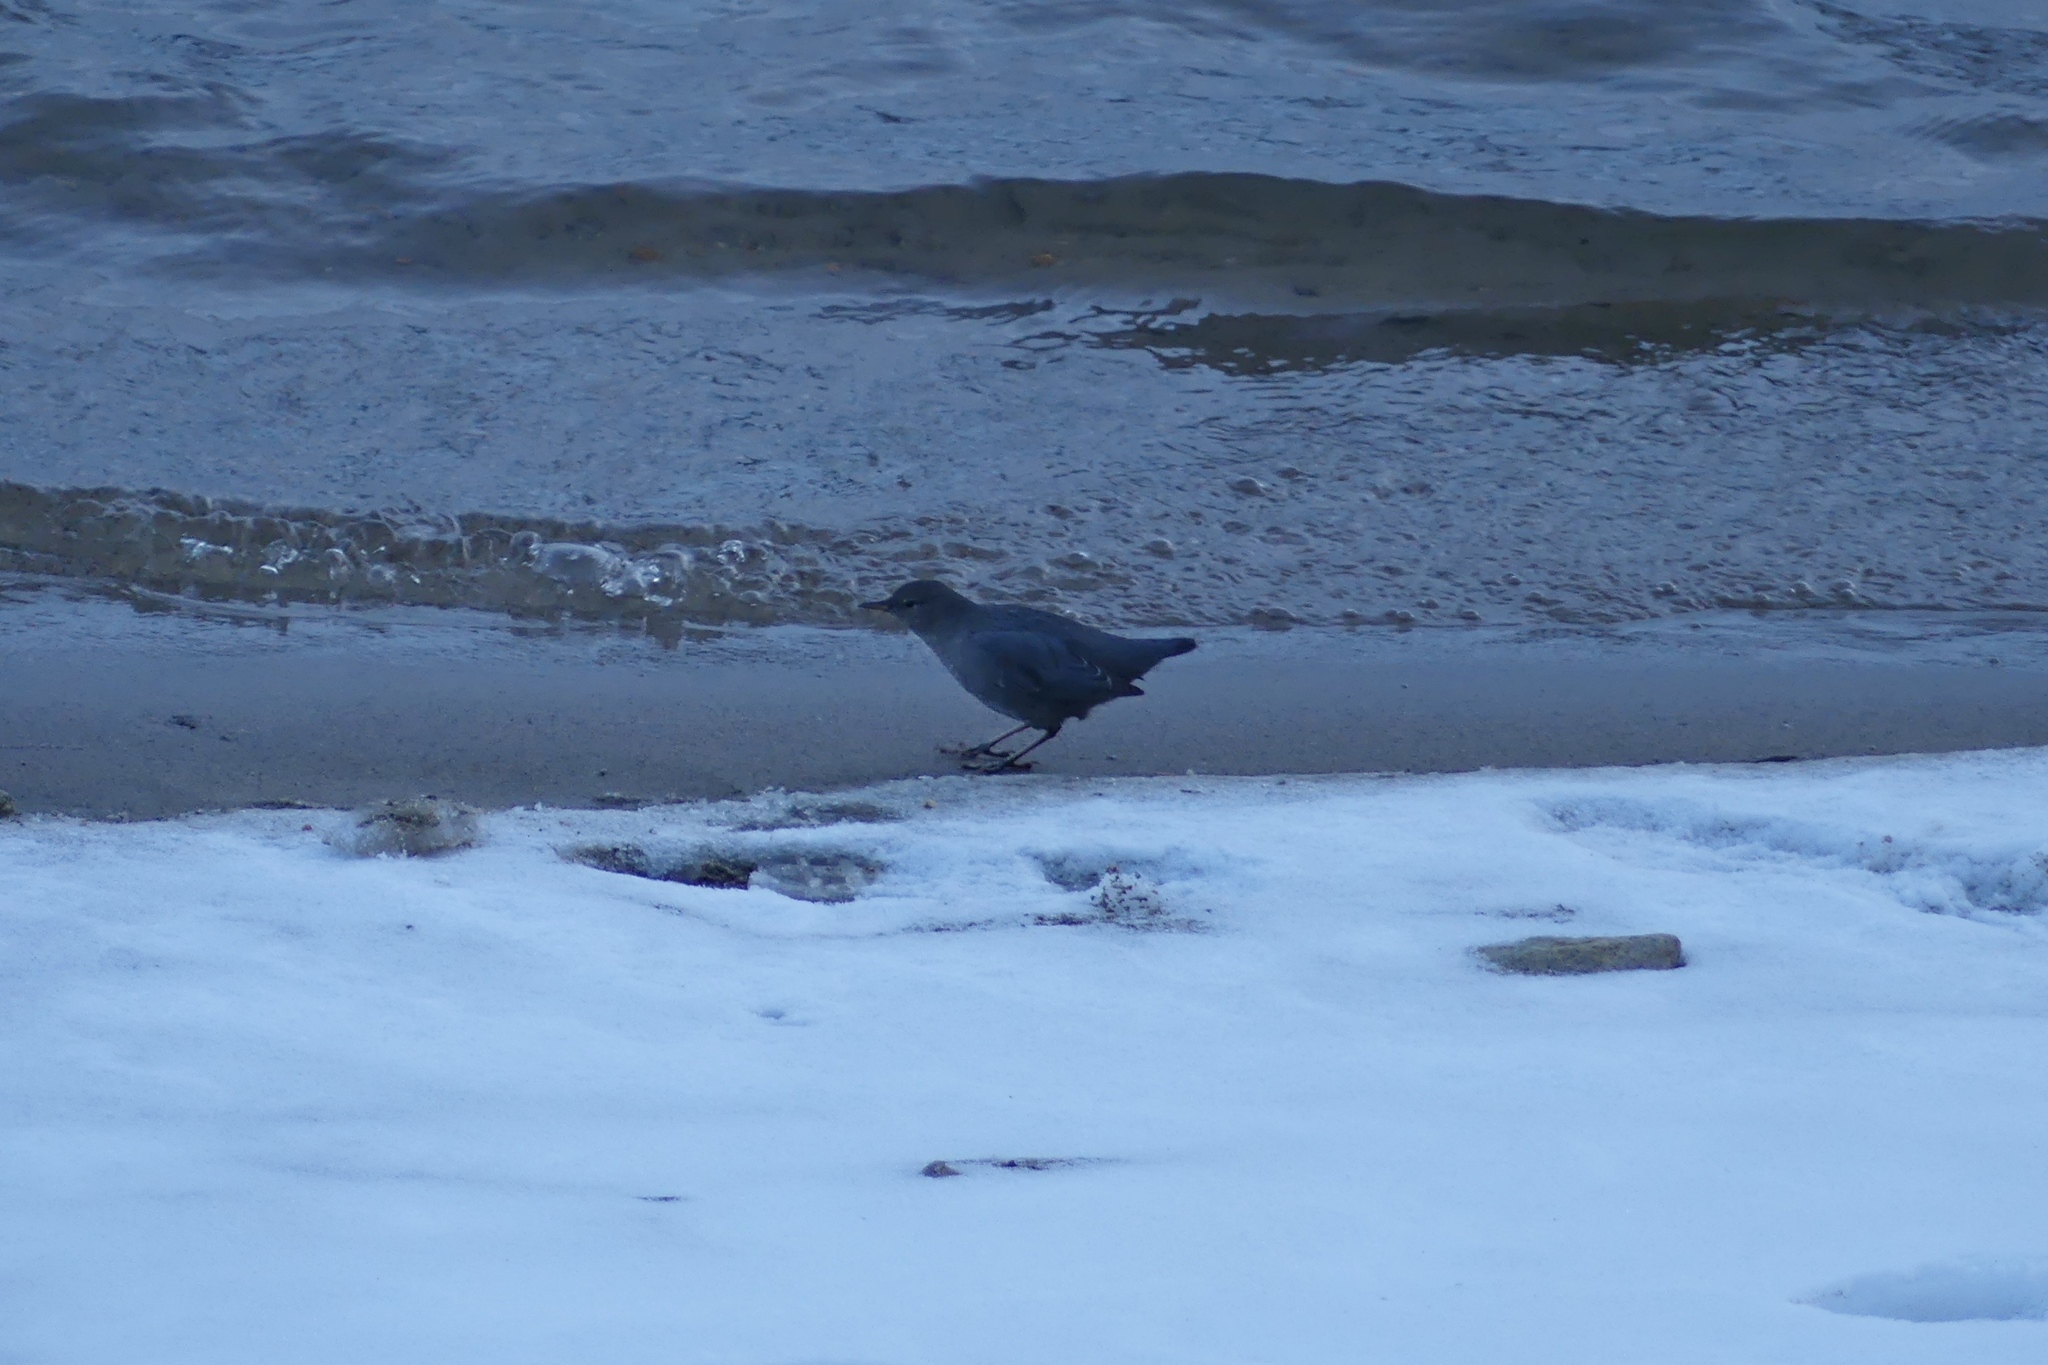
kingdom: Animalia
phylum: Chordata
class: Aves
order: Passeriformes
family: Cinclidae
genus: Cinclus
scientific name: Cinclus mexicanus
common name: American dipper
